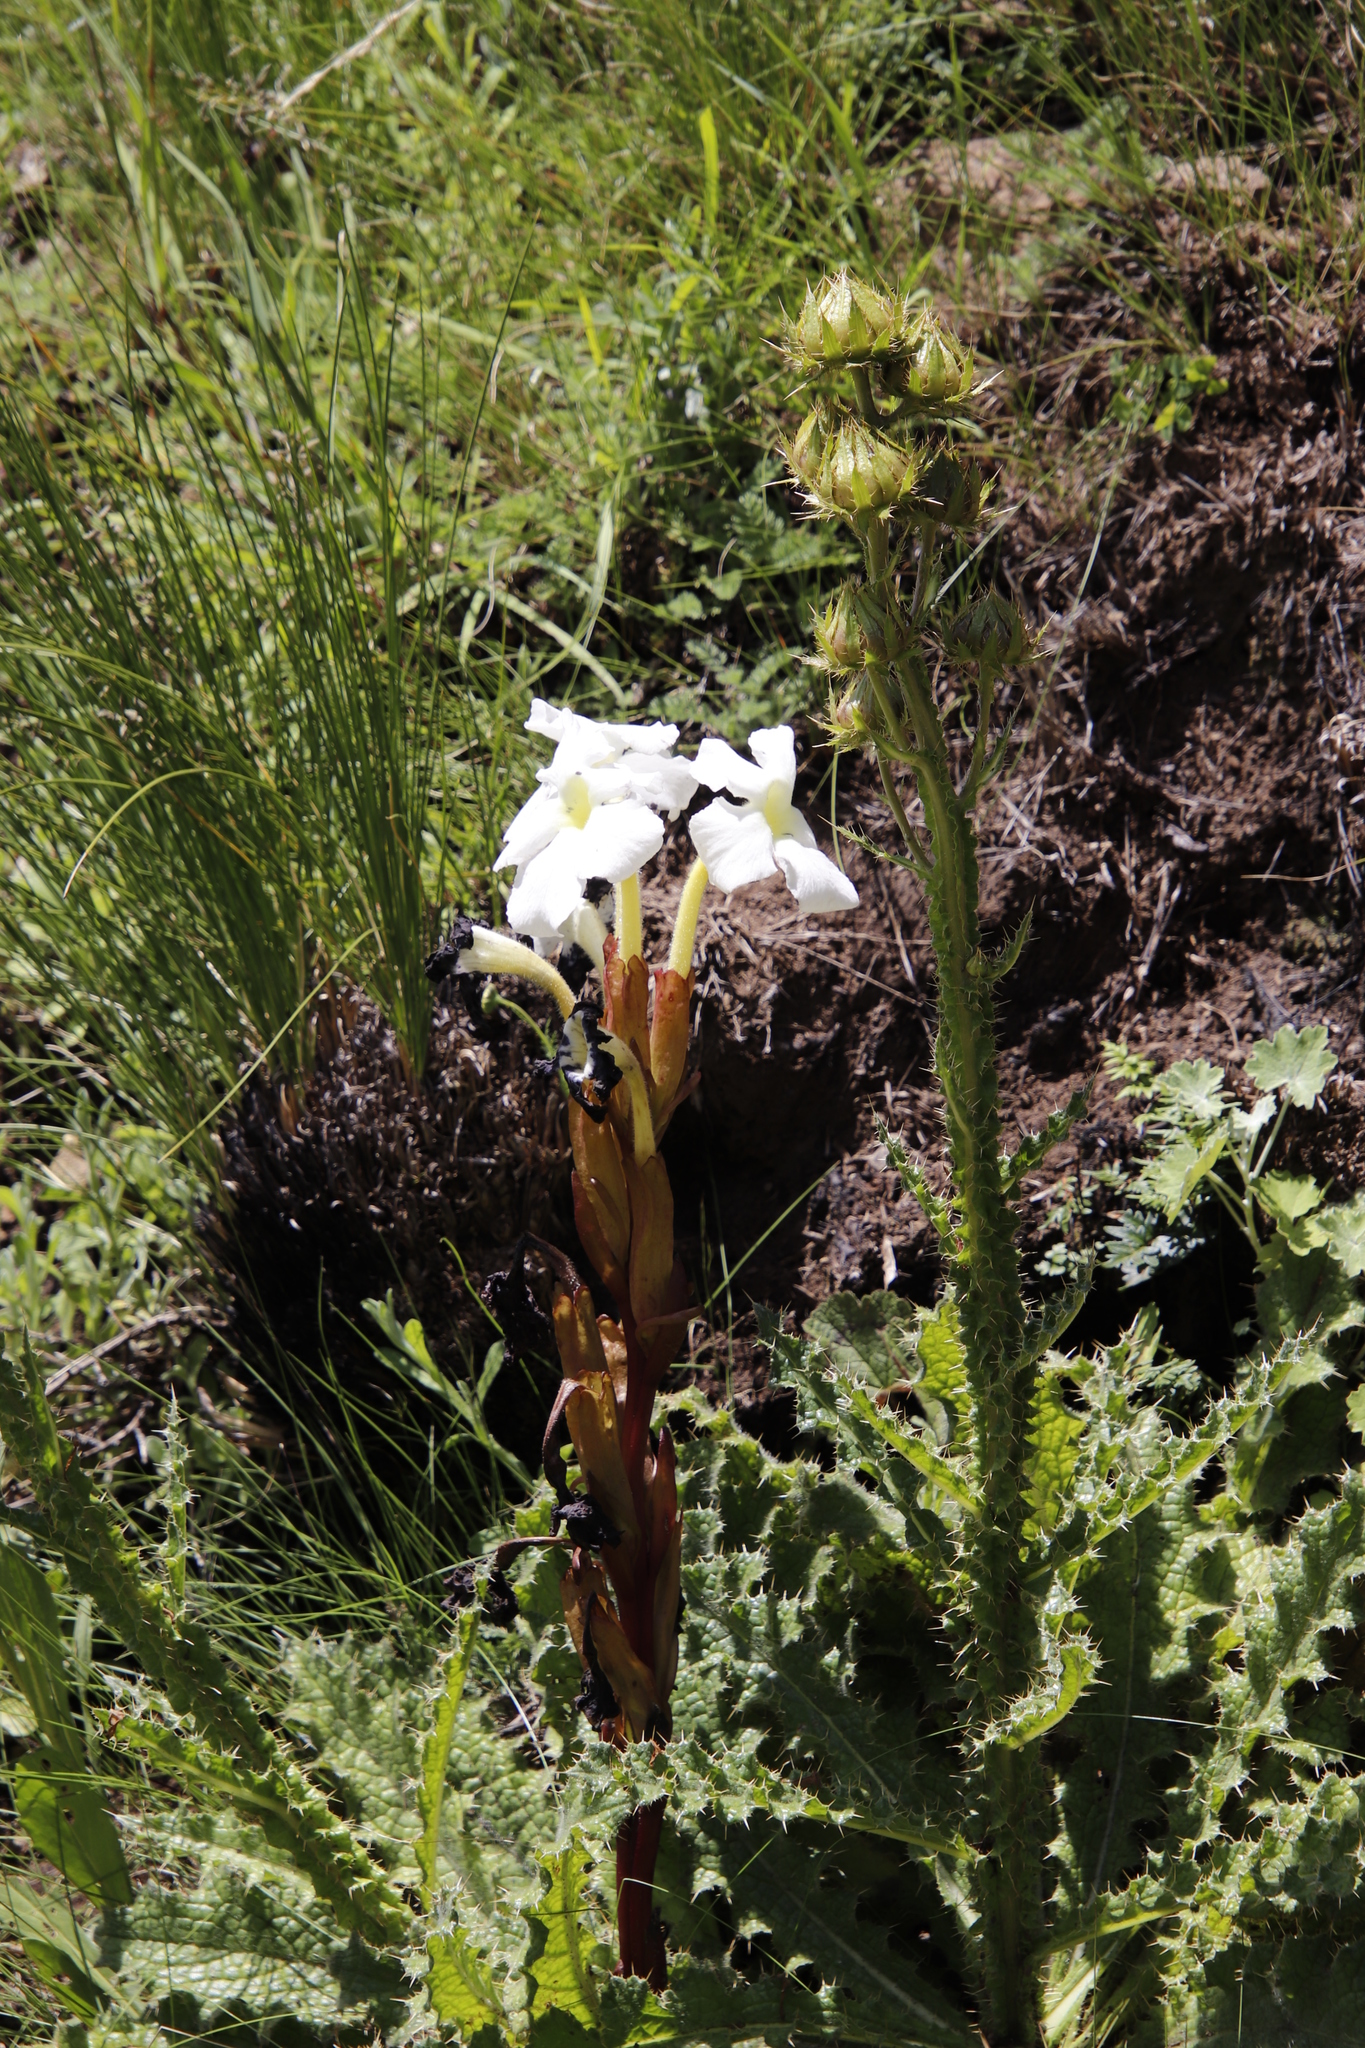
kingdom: Plantae
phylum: Tracheophyta
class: Magnoliopsida
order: Lamiales
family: Orobanchaceae
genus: Harveya
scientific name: Harveya speciosa
